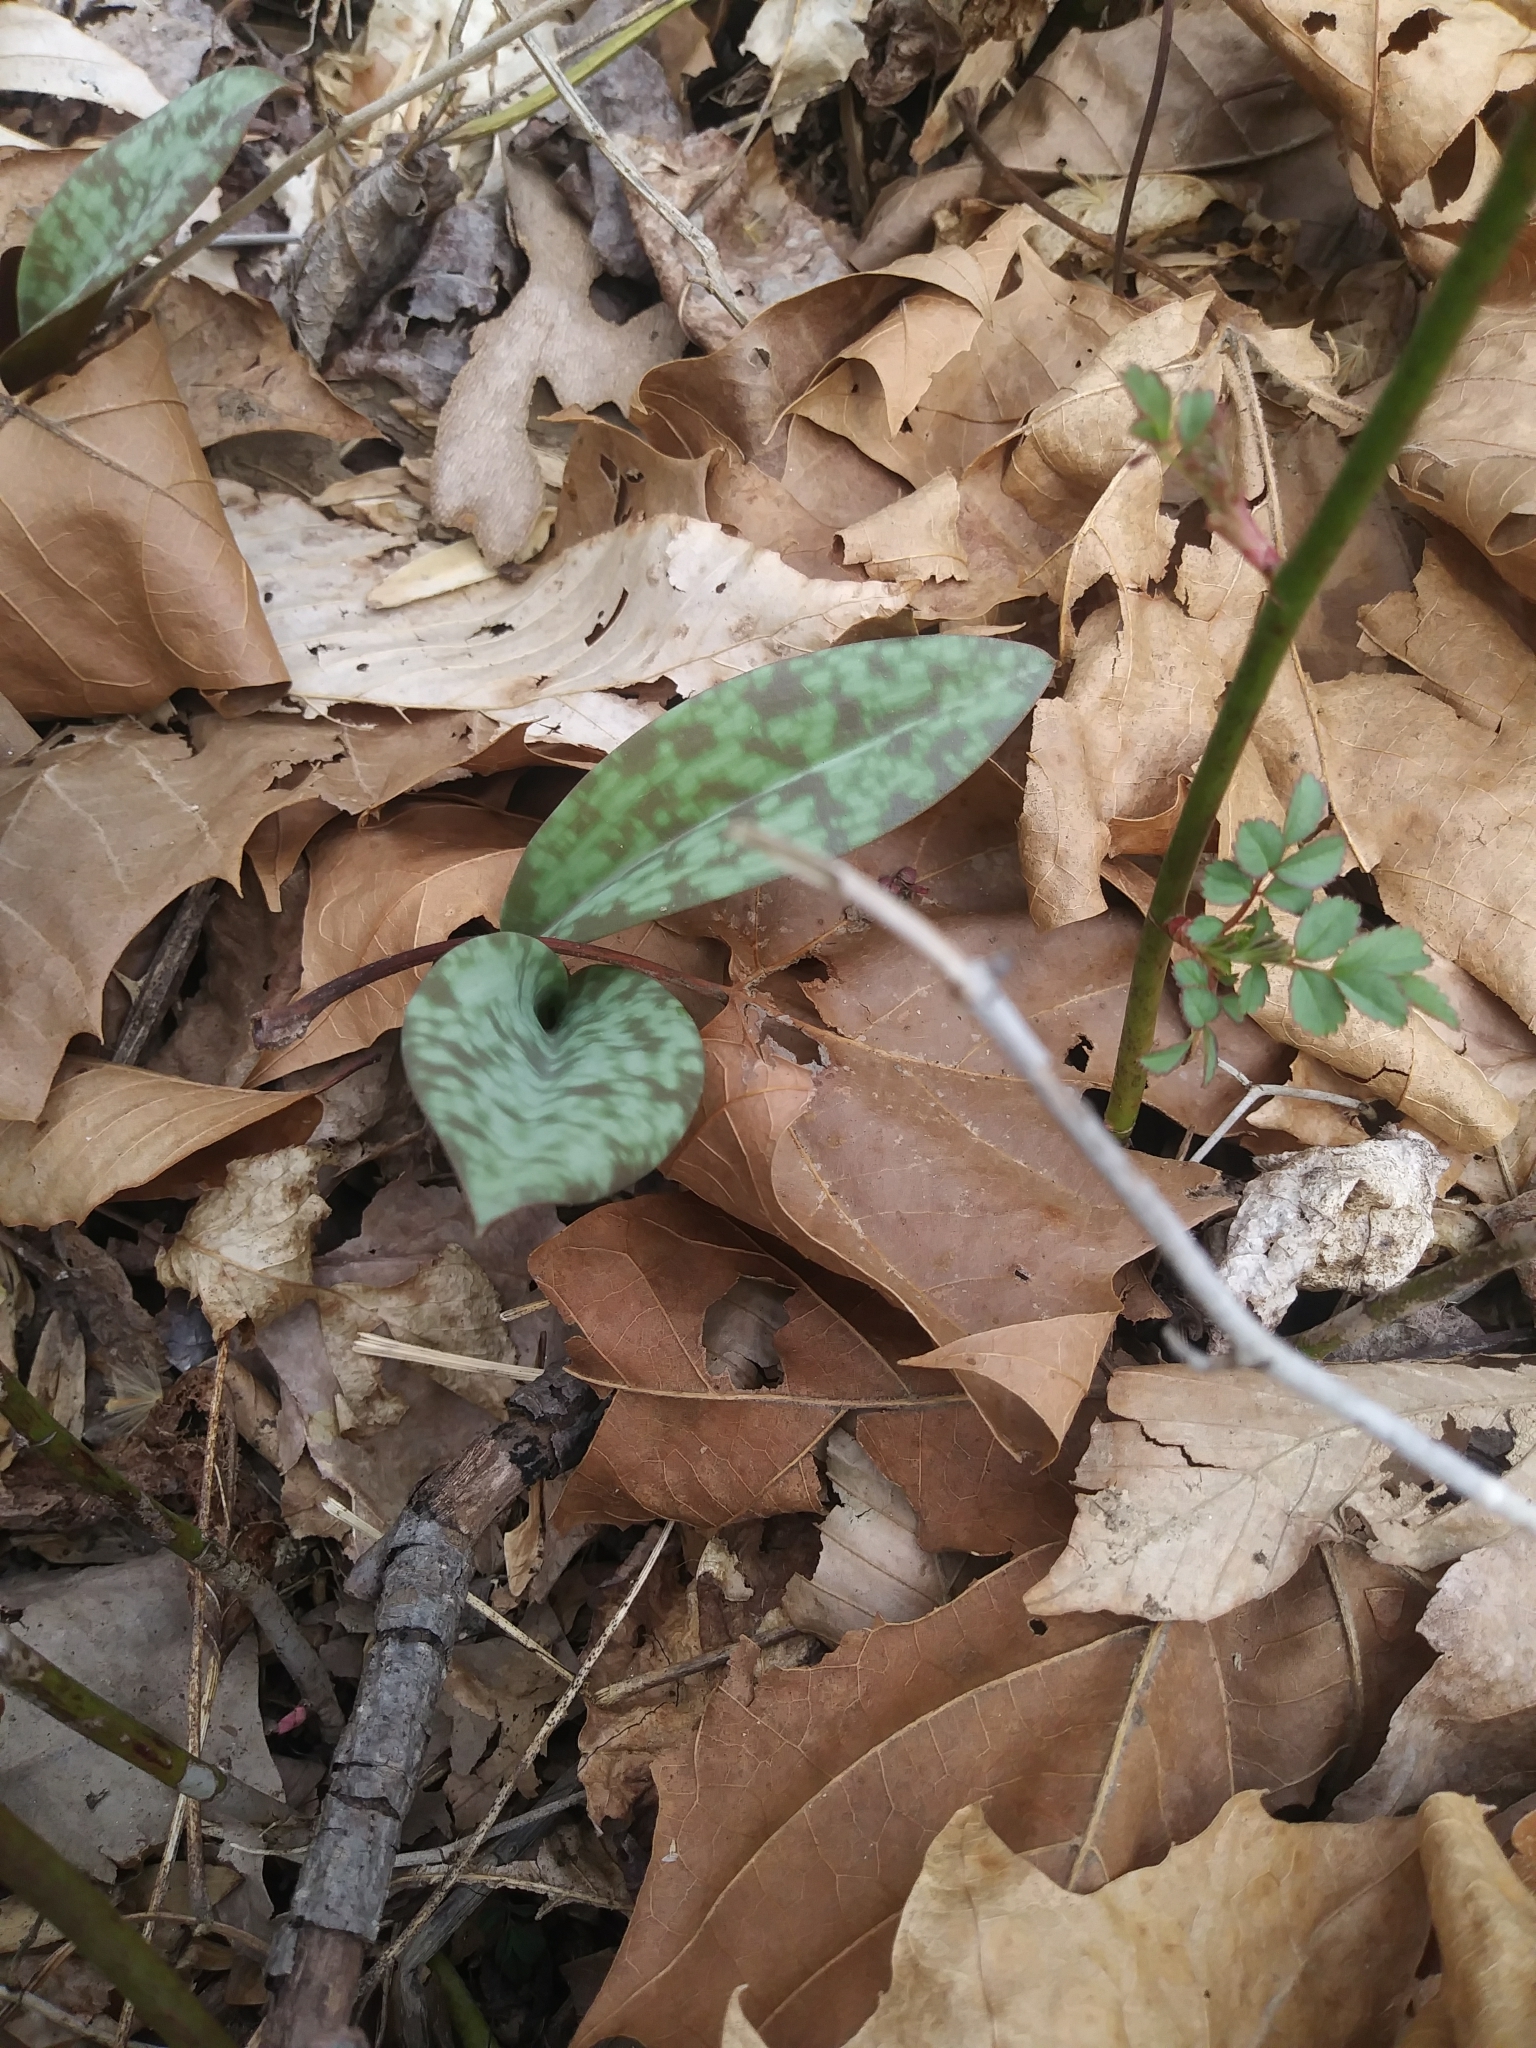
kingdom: Plantae
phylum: Tracheophyta
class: Liliopsida
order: Liliales
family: Liliaceae
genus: Erythronium
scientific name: Erythronium americanum
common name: Yellow adder's-tongue
